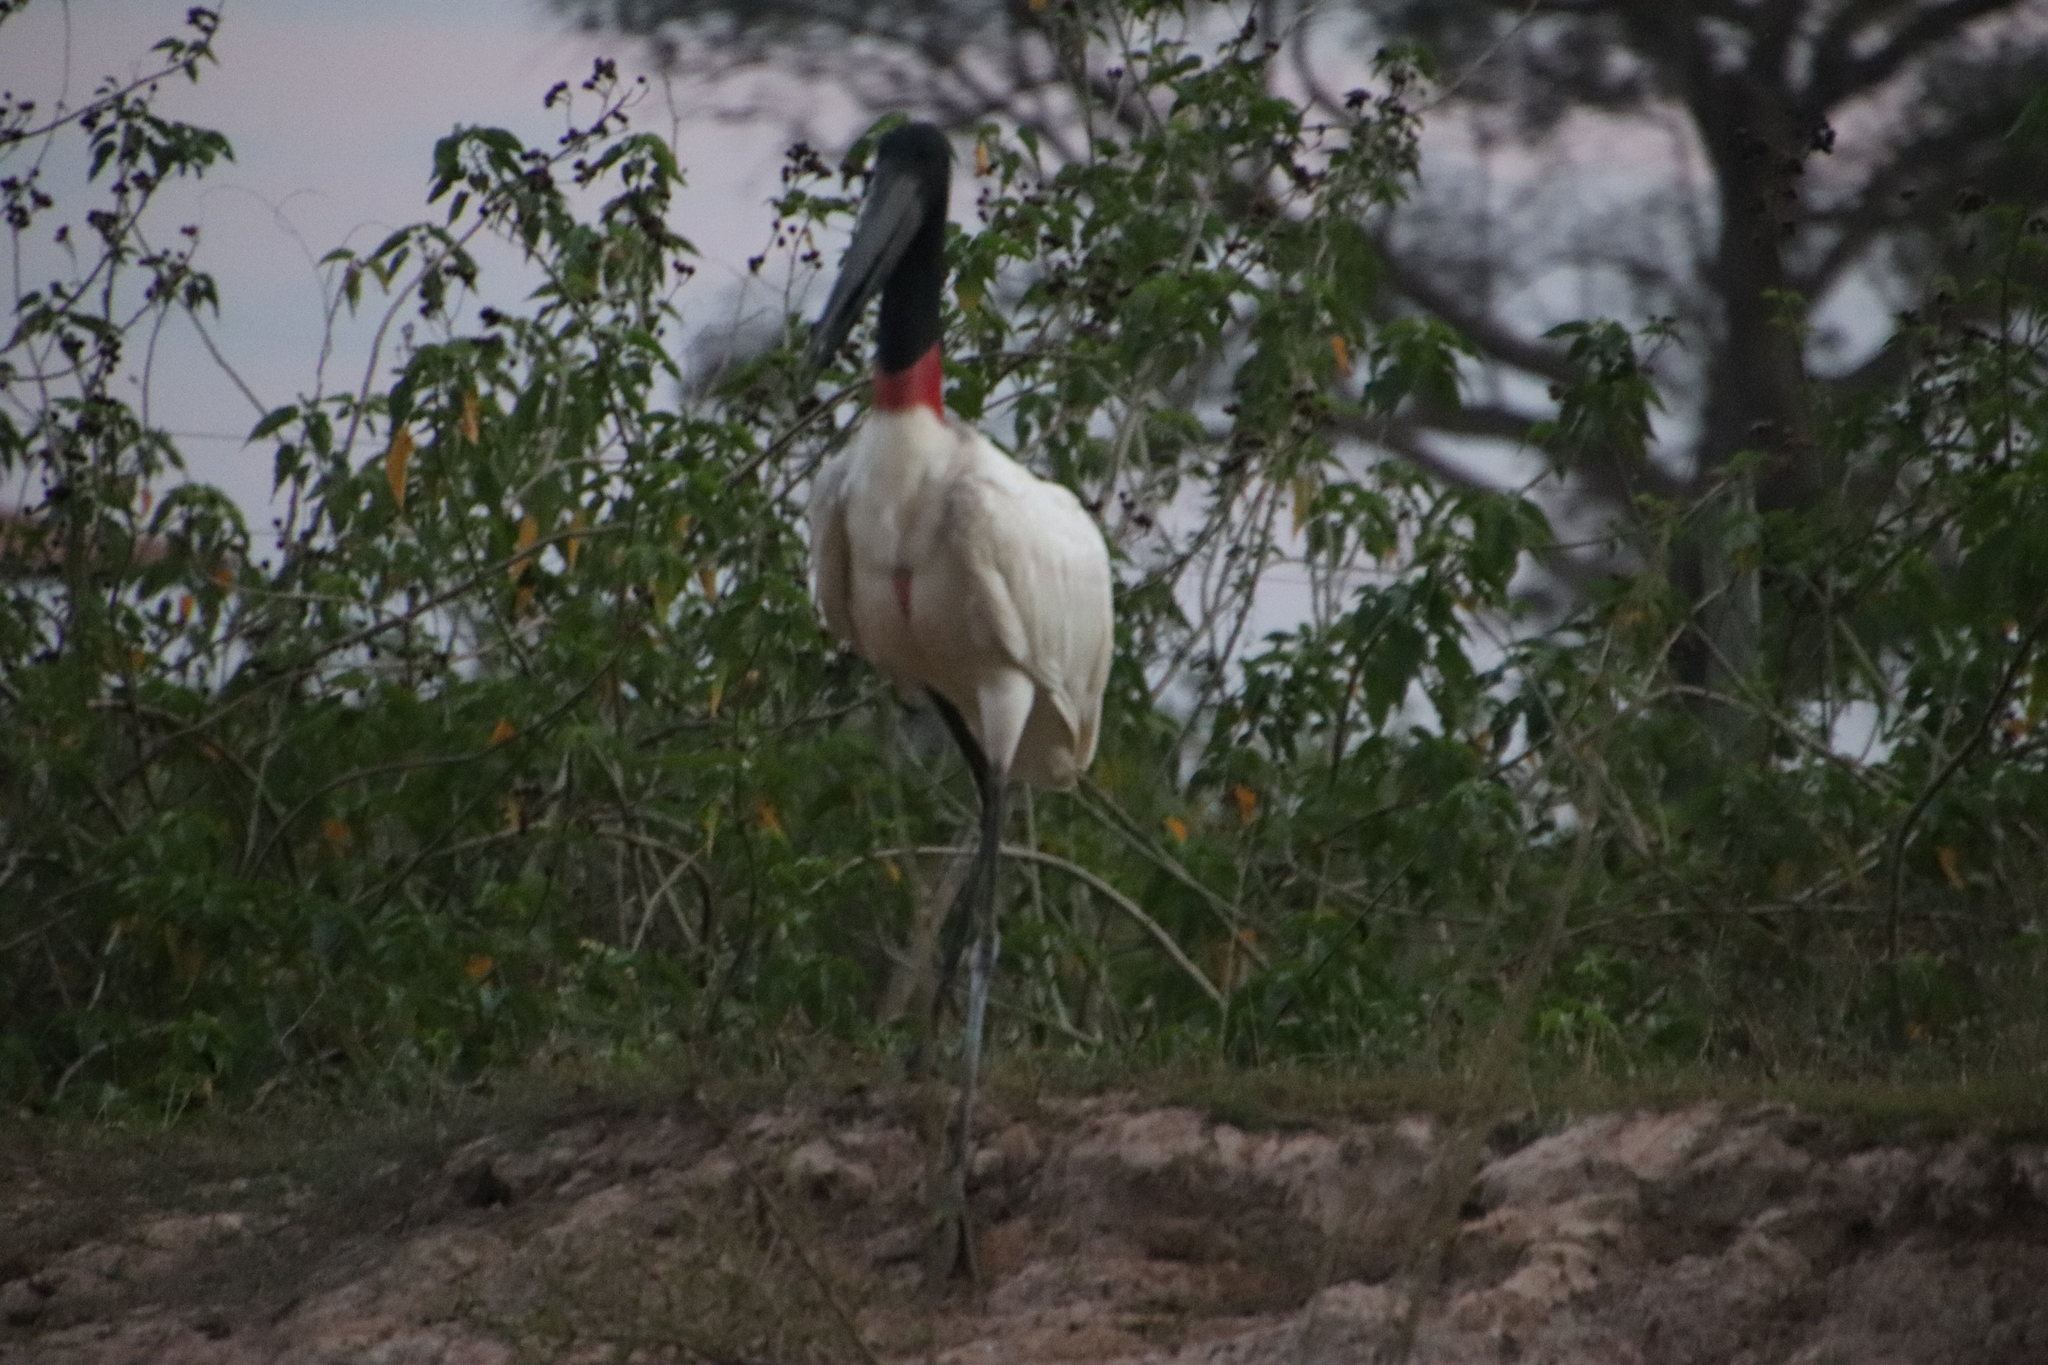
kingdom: Animalia
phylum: Chordata
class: Aves
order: Ciconiiformes
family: Ciconiidae
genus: Jabiru
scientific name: Jabiru mycteria
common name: Jabiru
